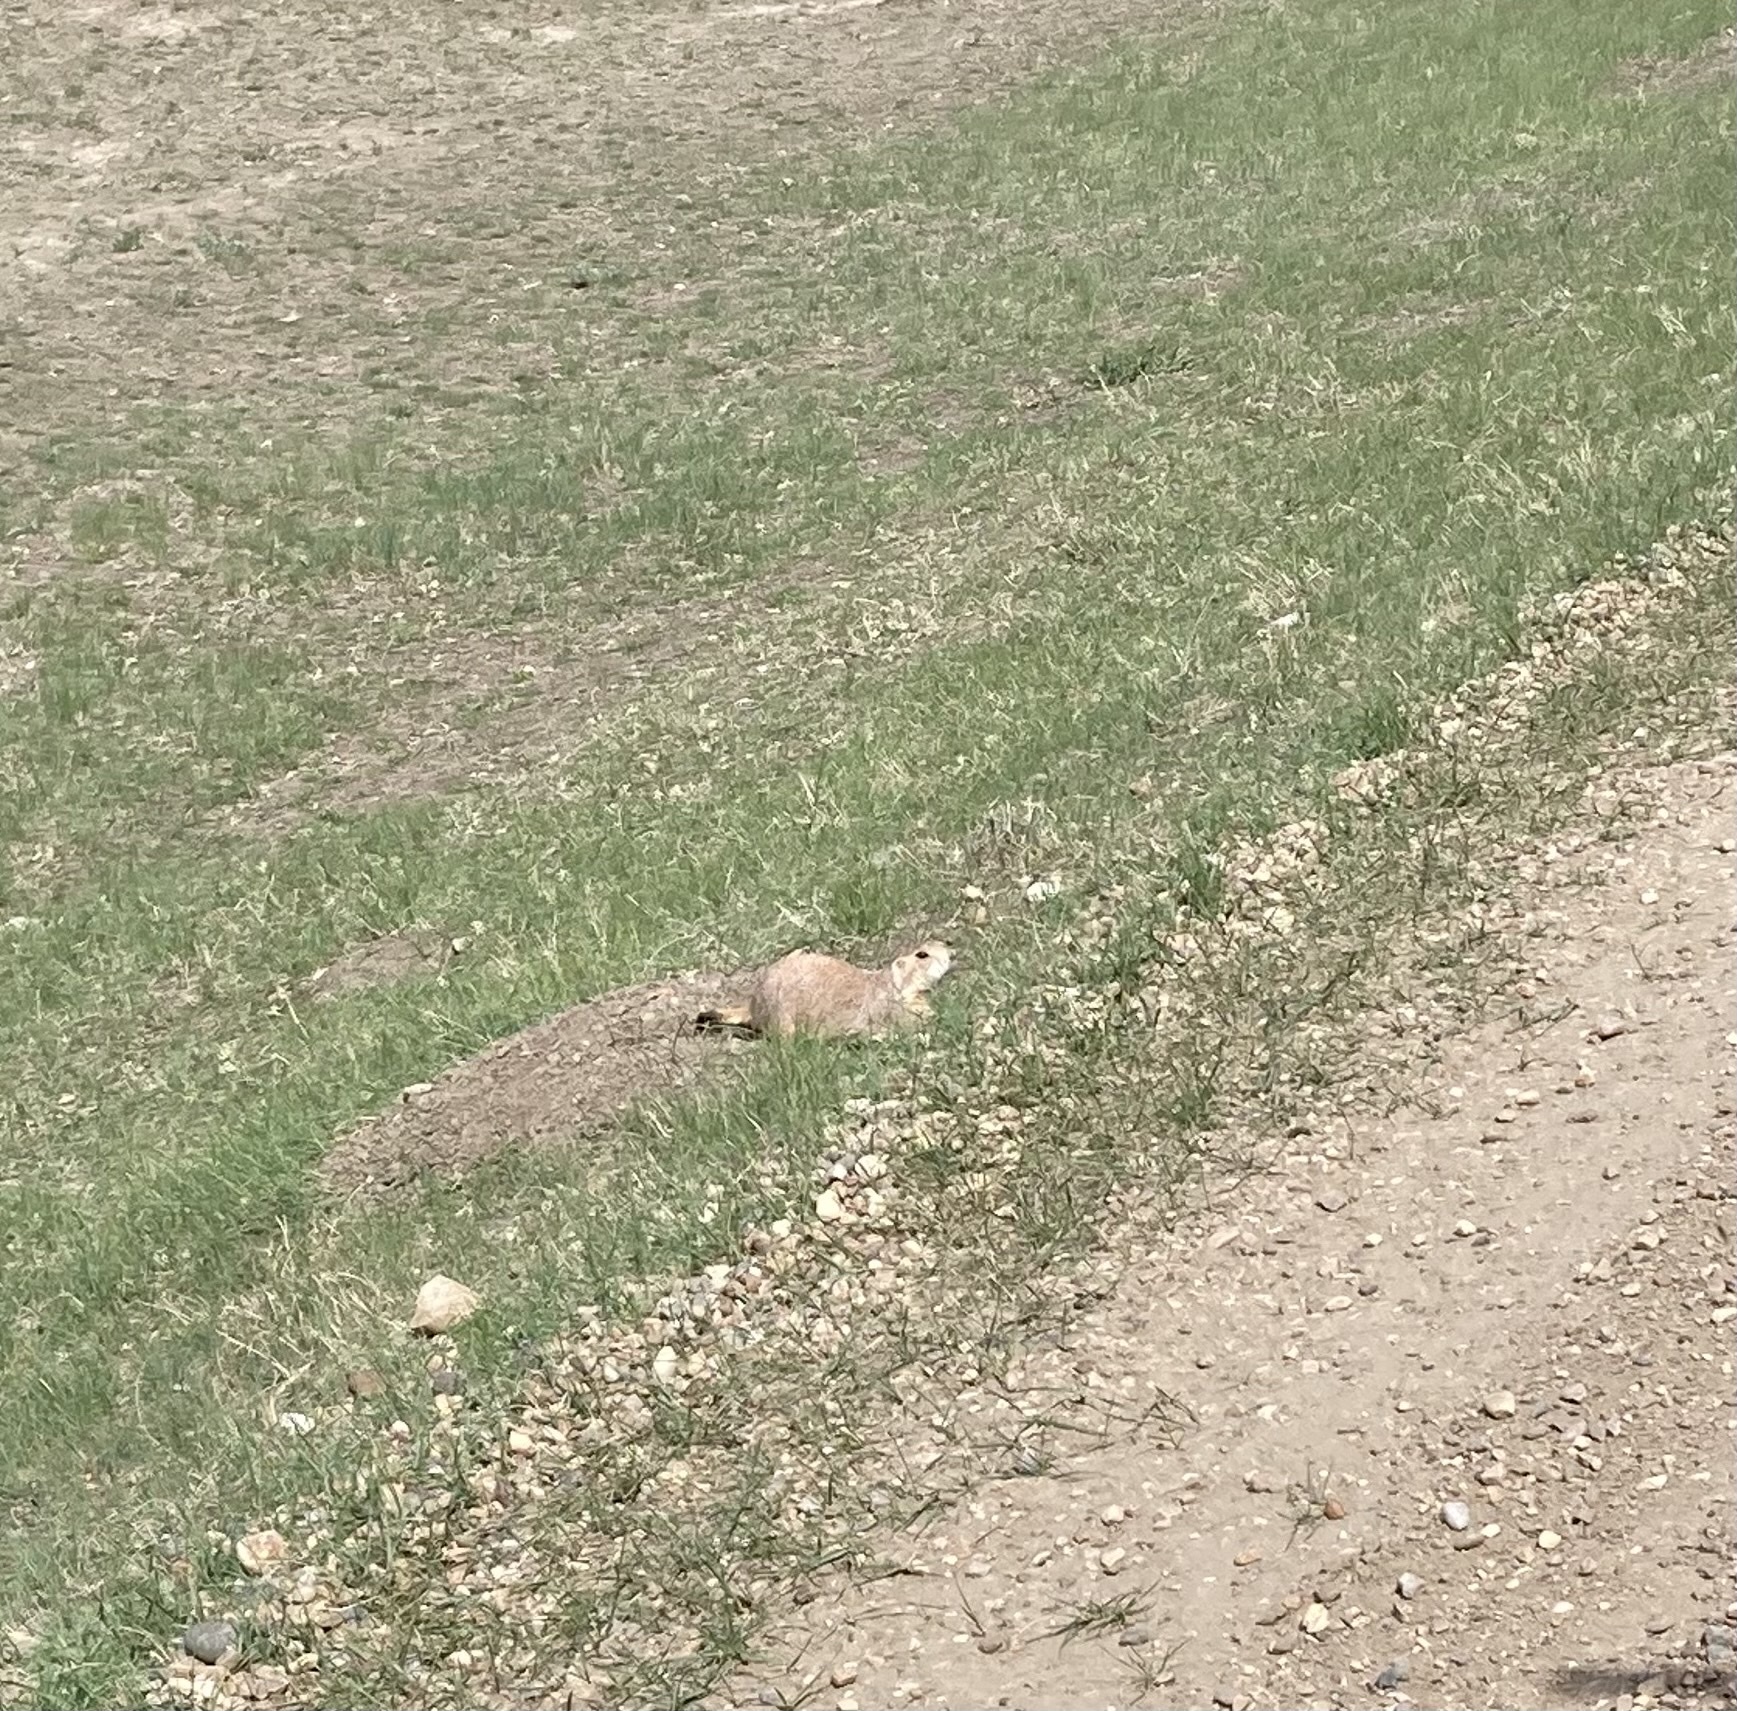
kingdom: Animalia
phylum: Chordata
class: Mammalia
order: Rodentia
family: Sciuridae
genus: Cynomys
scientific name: Cynomys ludovicianus
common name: Black-tailed prairie dog
